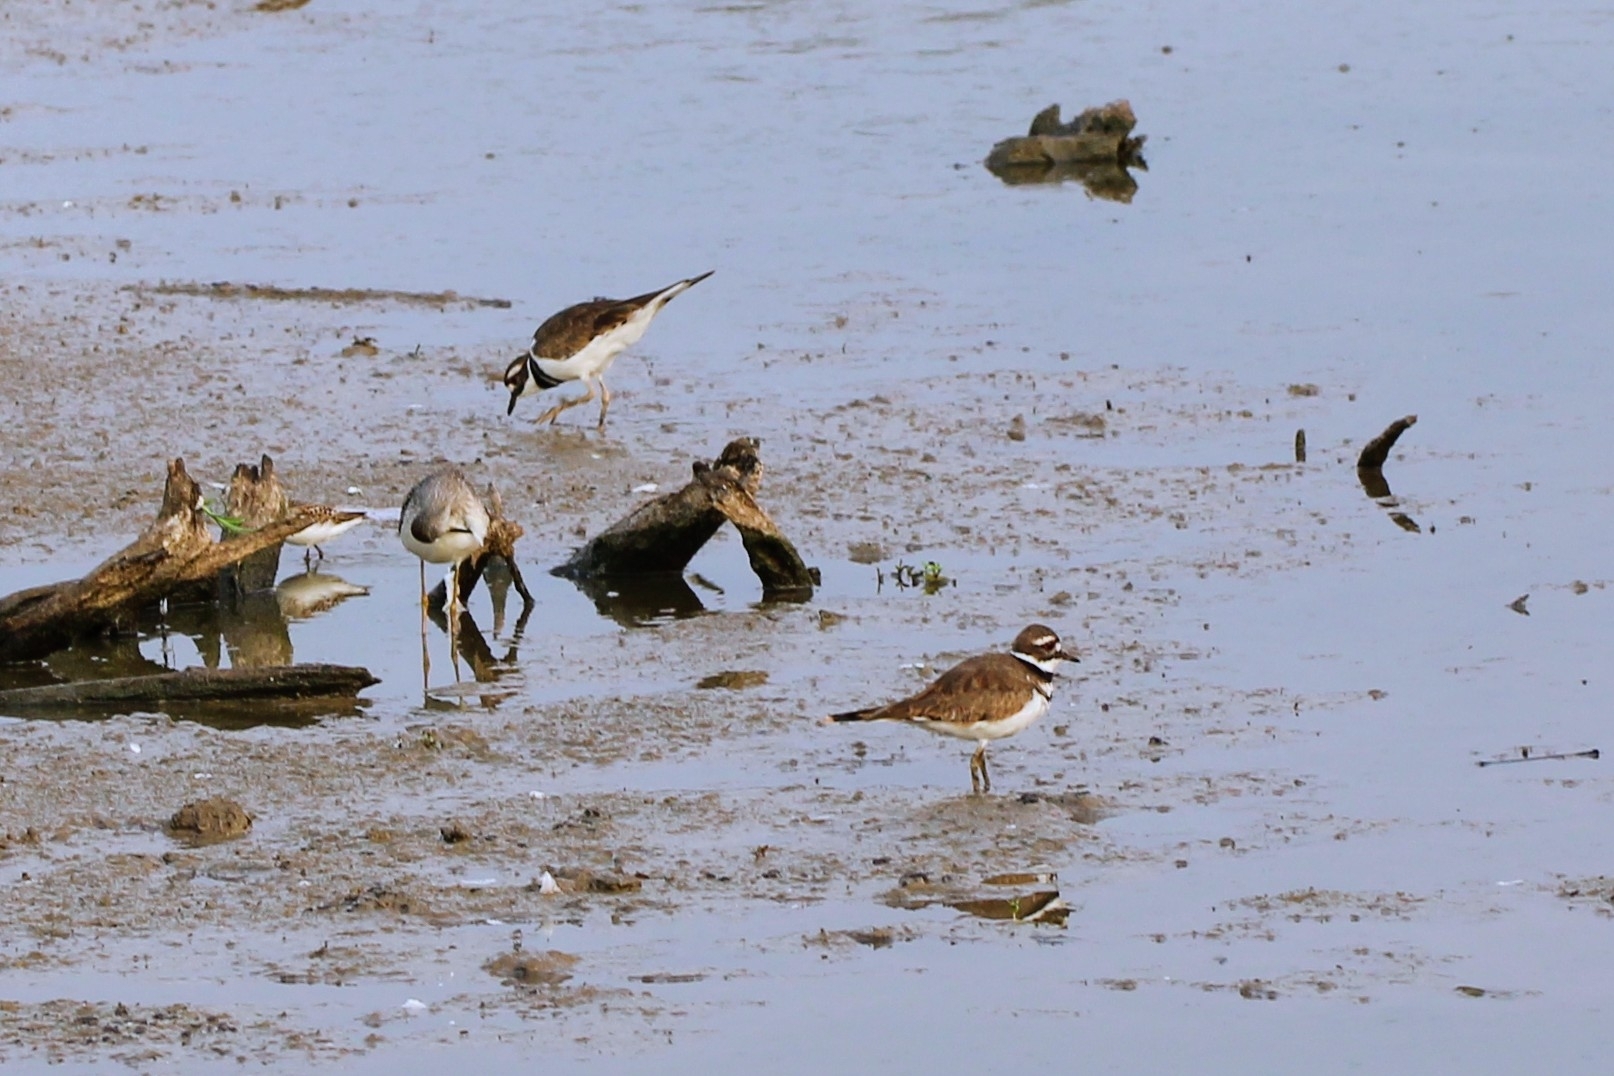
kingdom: Animalia
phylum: Chordata
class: Aves
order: Charadriiformes
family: Charadriidae
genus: Charadrius
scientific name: Charadrius vociferus
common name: Killdeer
